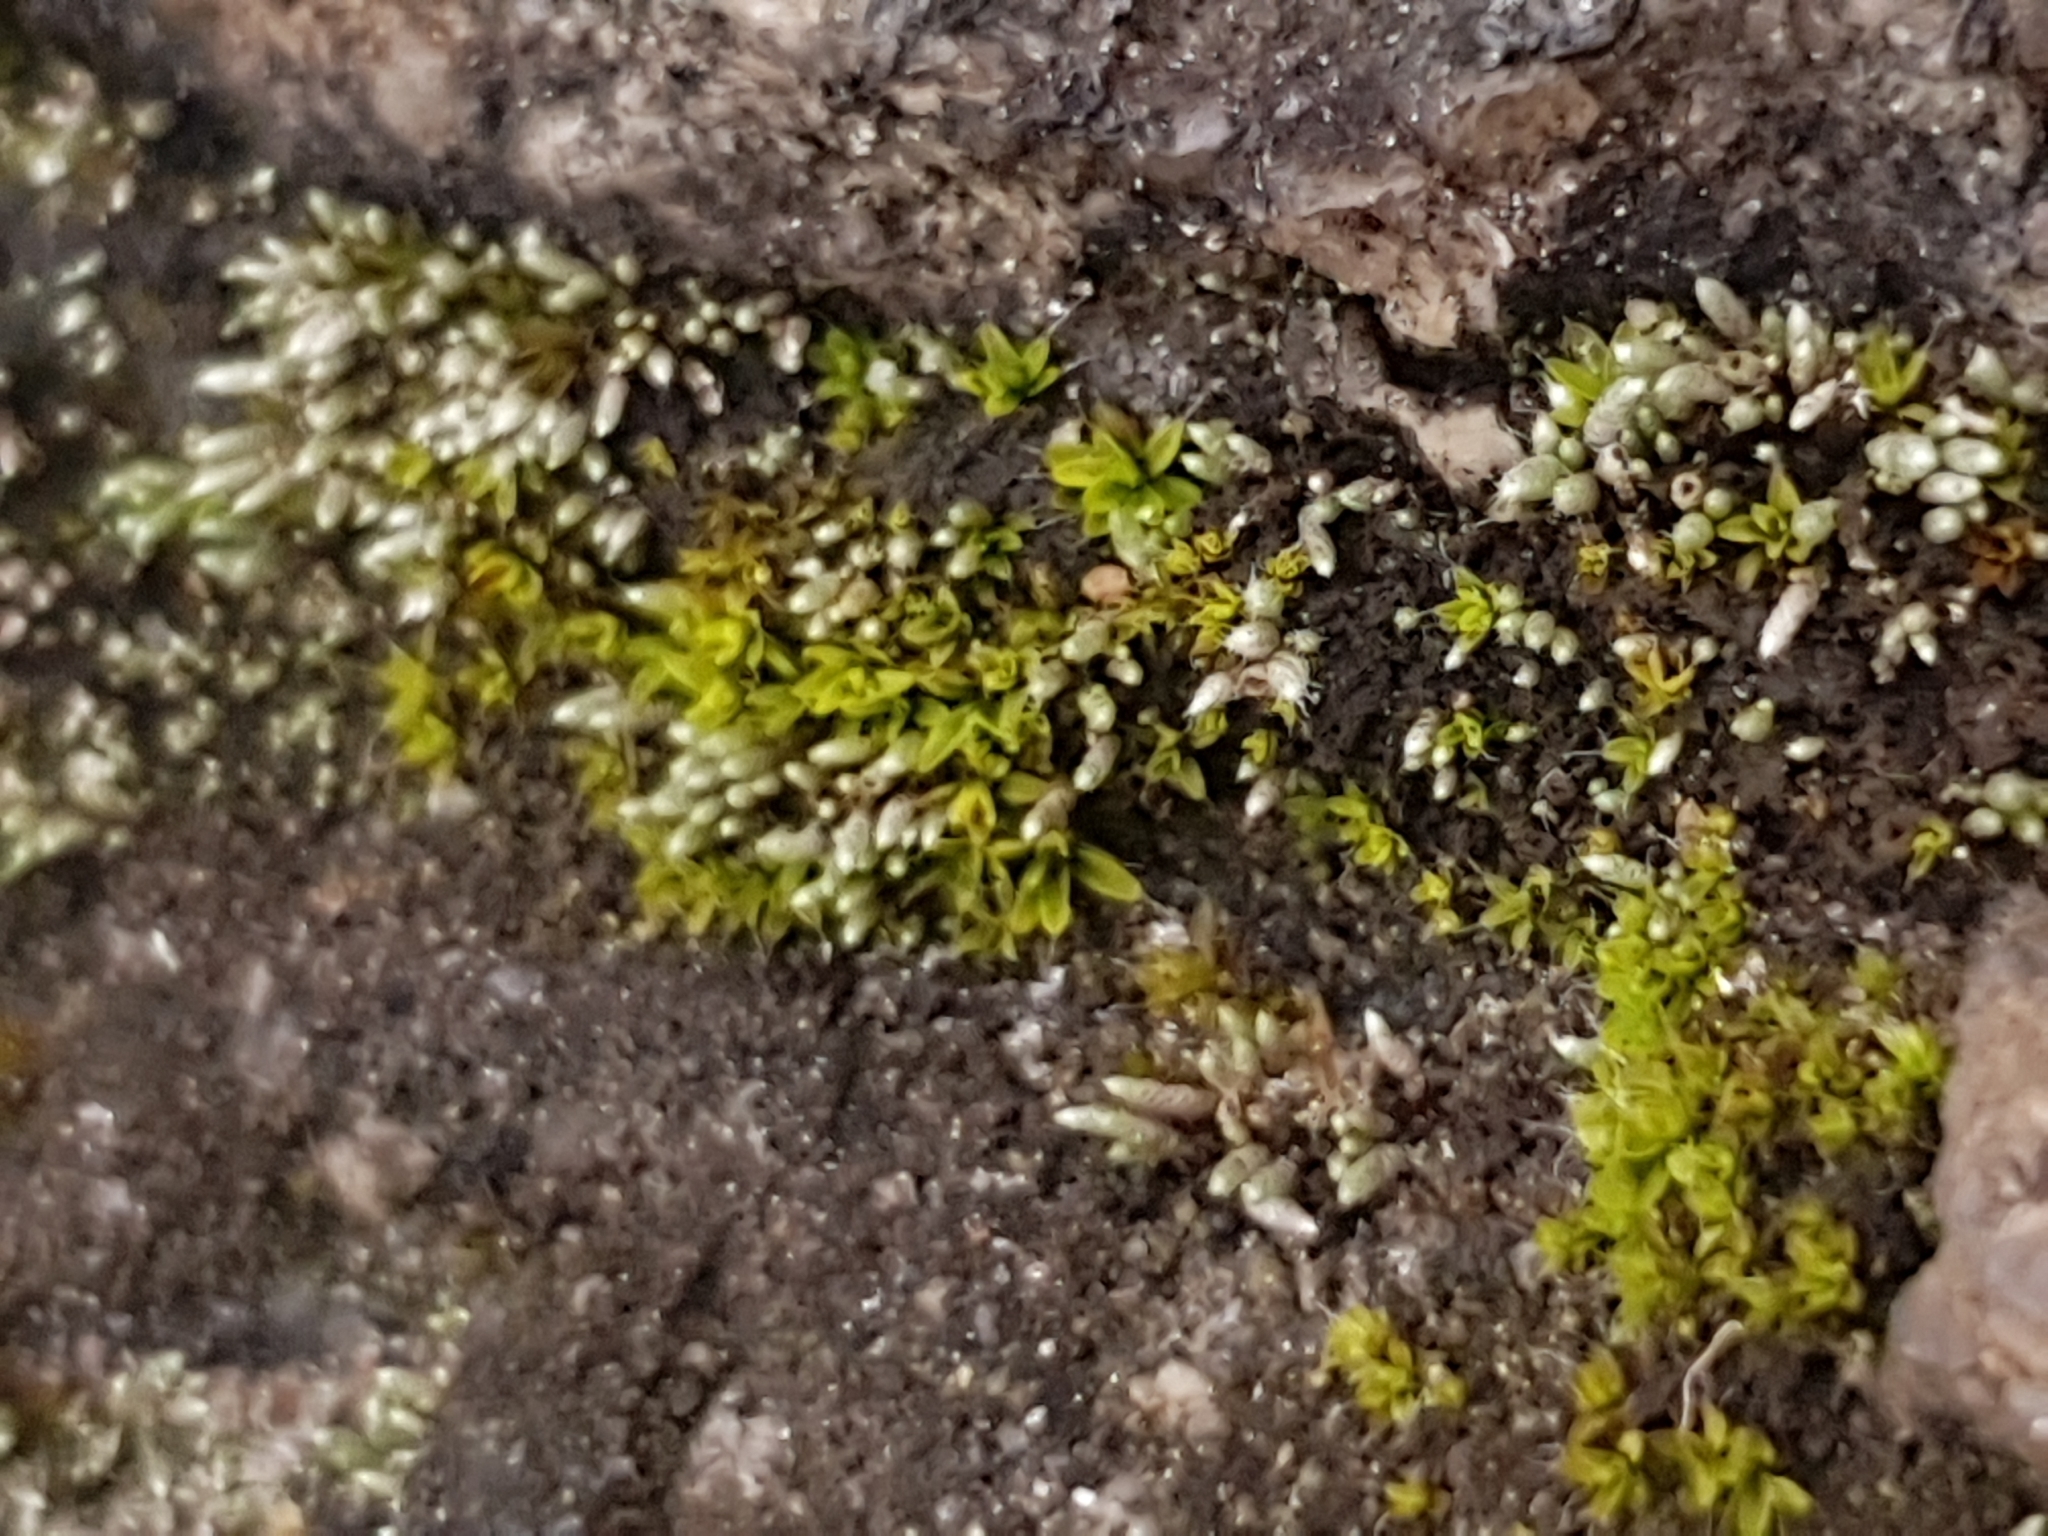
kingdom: Plantae
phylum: Bryophyta
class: Bryopsida
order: Bryales
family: Bryaceae
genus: Bryum
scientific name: Bryum argenteum
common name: Silver-moss
